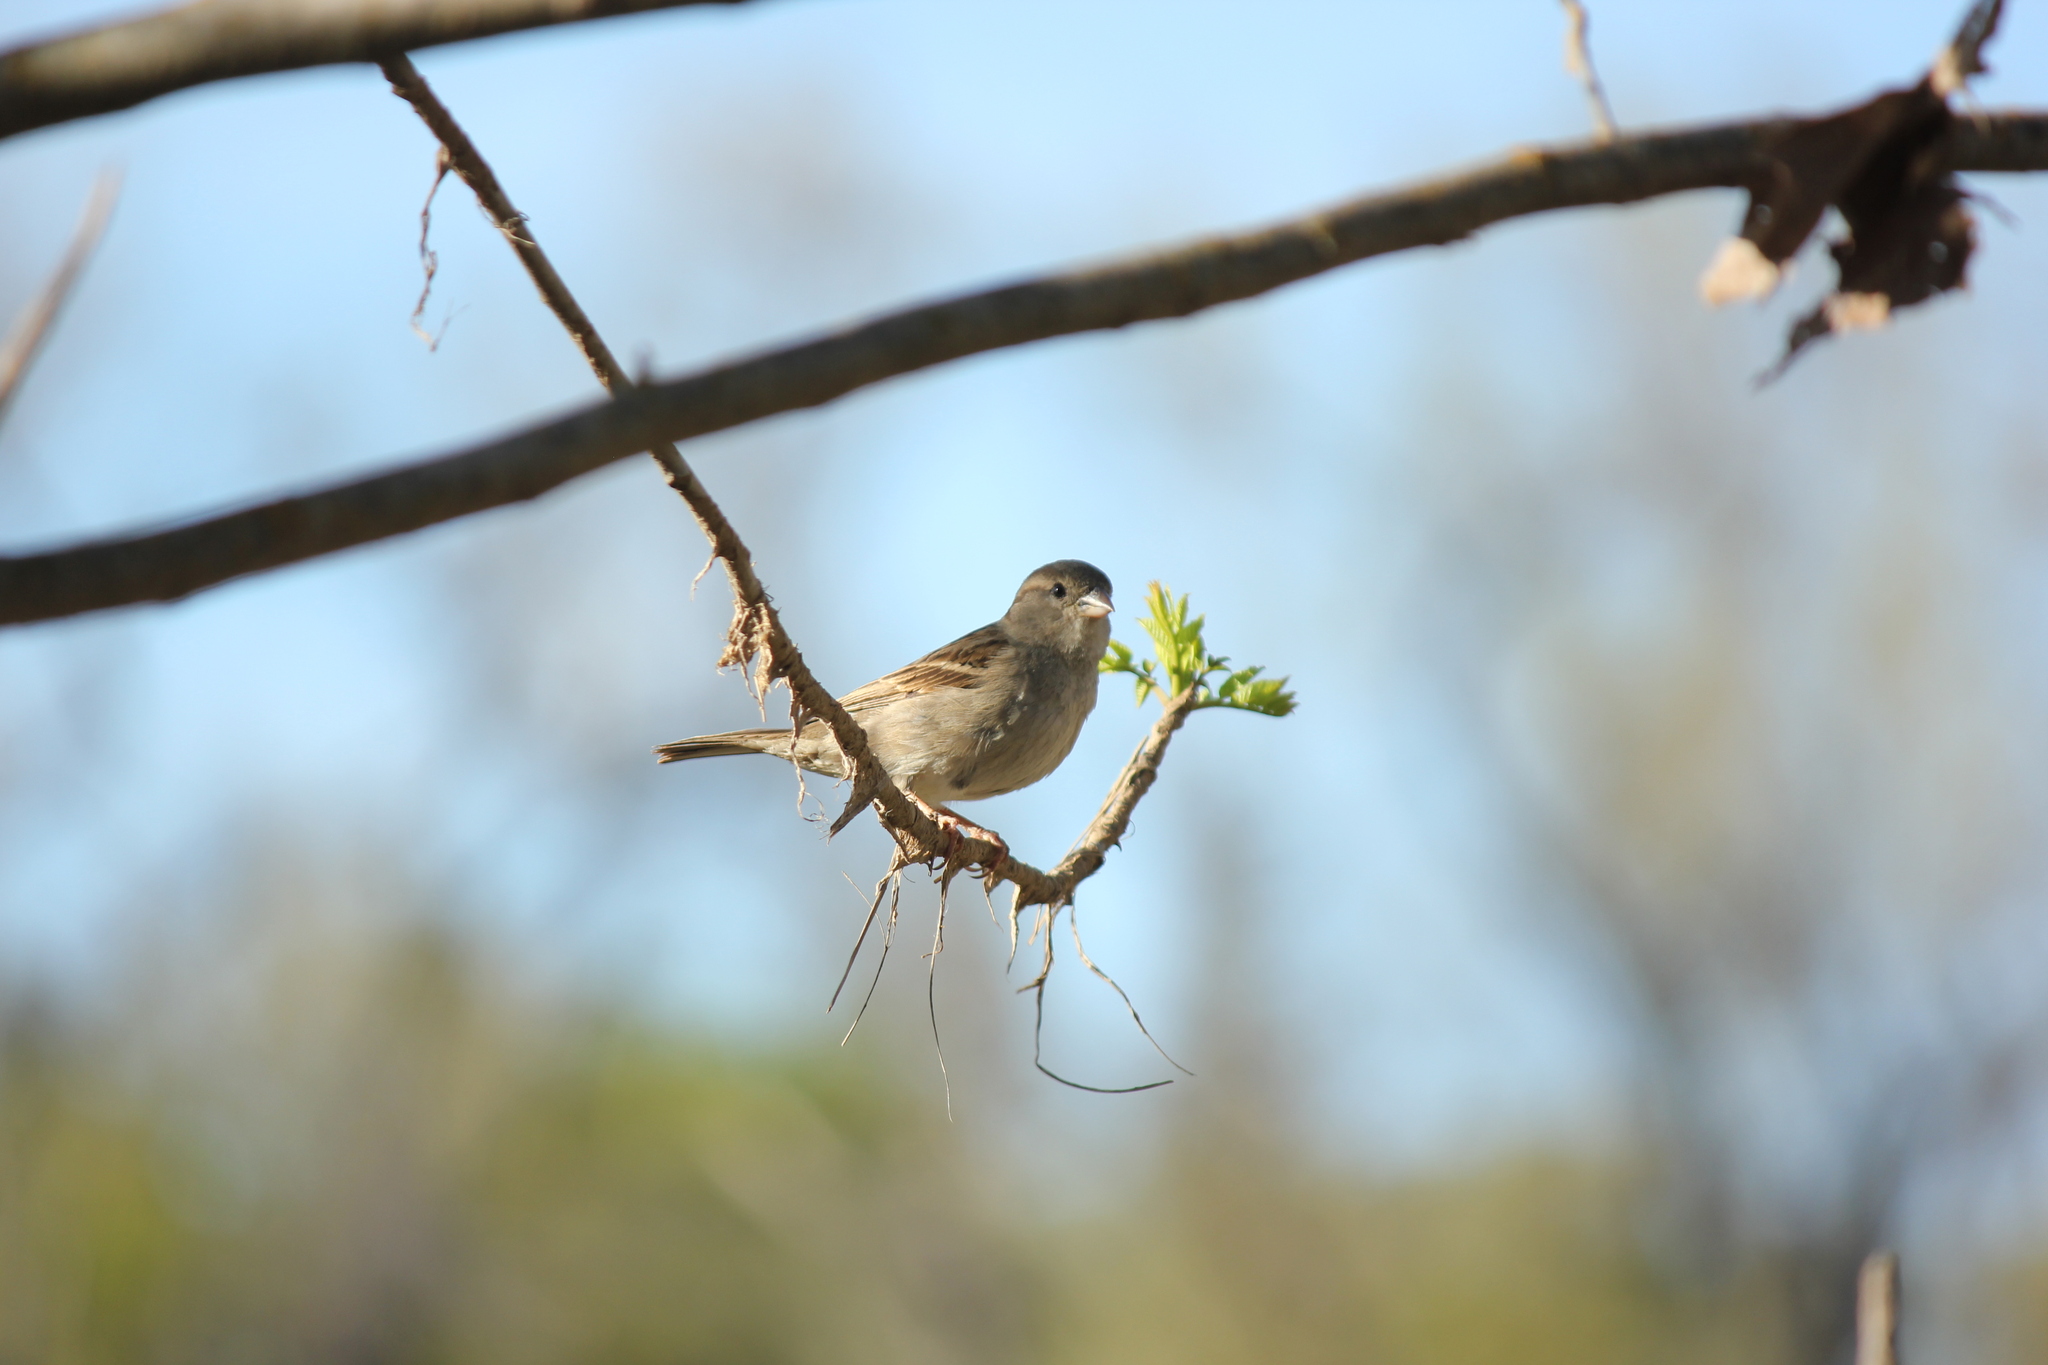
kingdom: Animalia
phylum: Chordata
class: Aves
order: Passeriformes
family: Passeridae
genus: Passer
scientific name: Passer domesticus
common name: House sparrow
